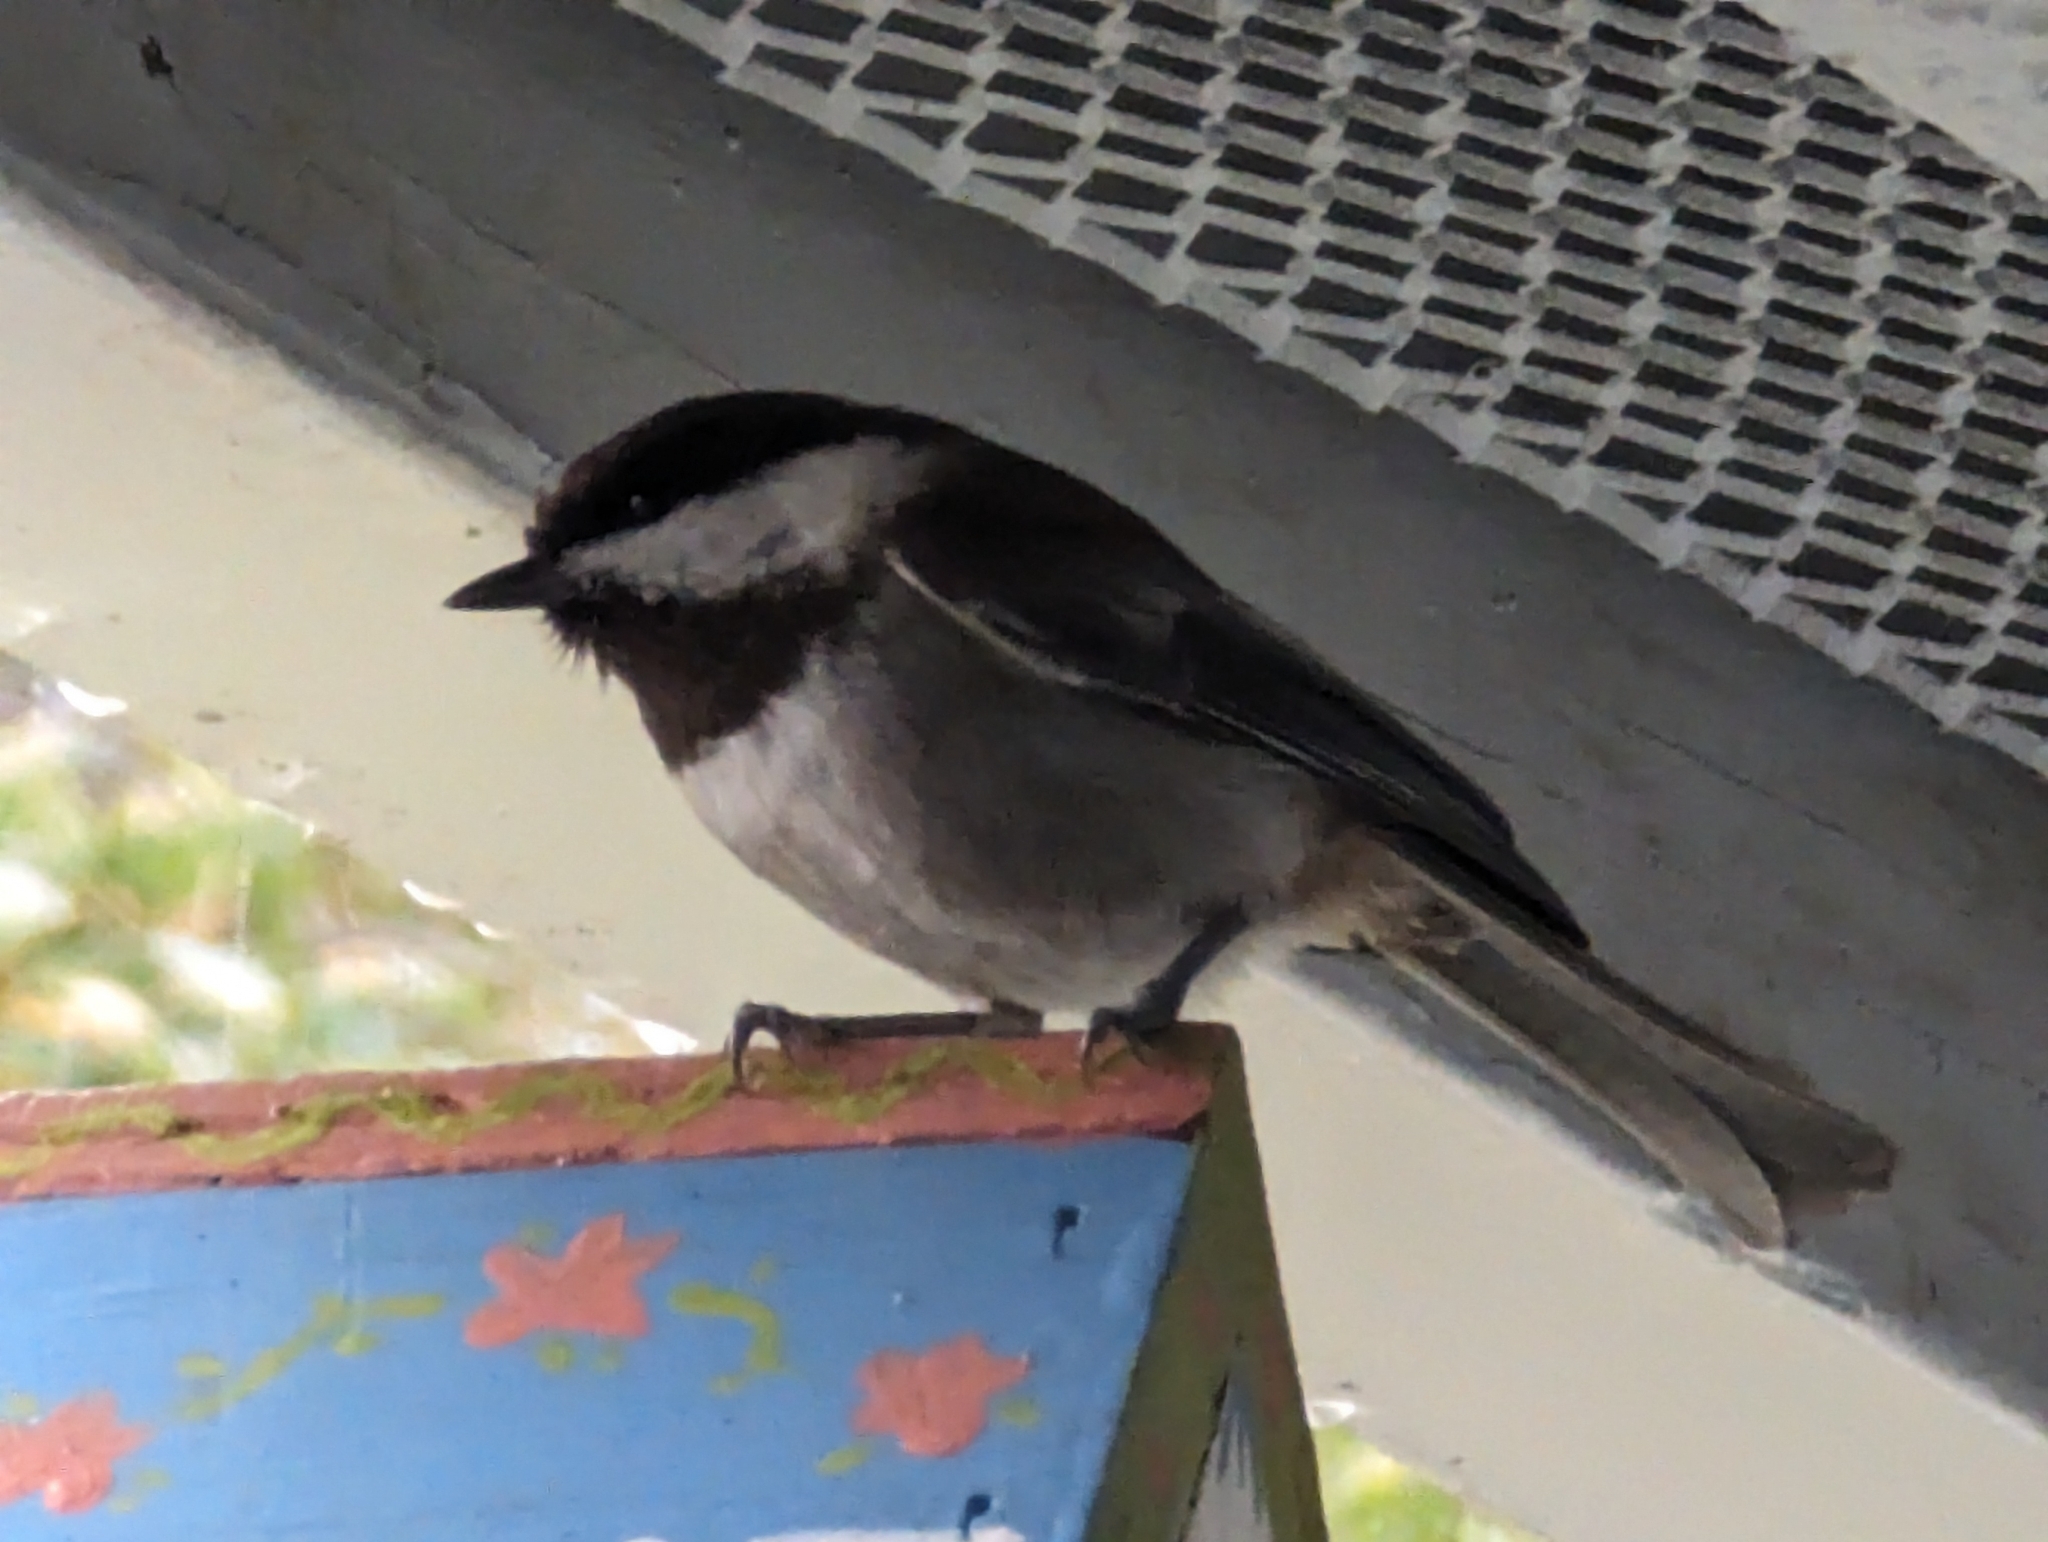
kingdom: Animalia
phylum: Chordata
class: Aves
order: Passeriformes
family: Paridae
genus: Poecile
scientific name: Poecile rufescens
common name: Chestnut-backed chickadee
